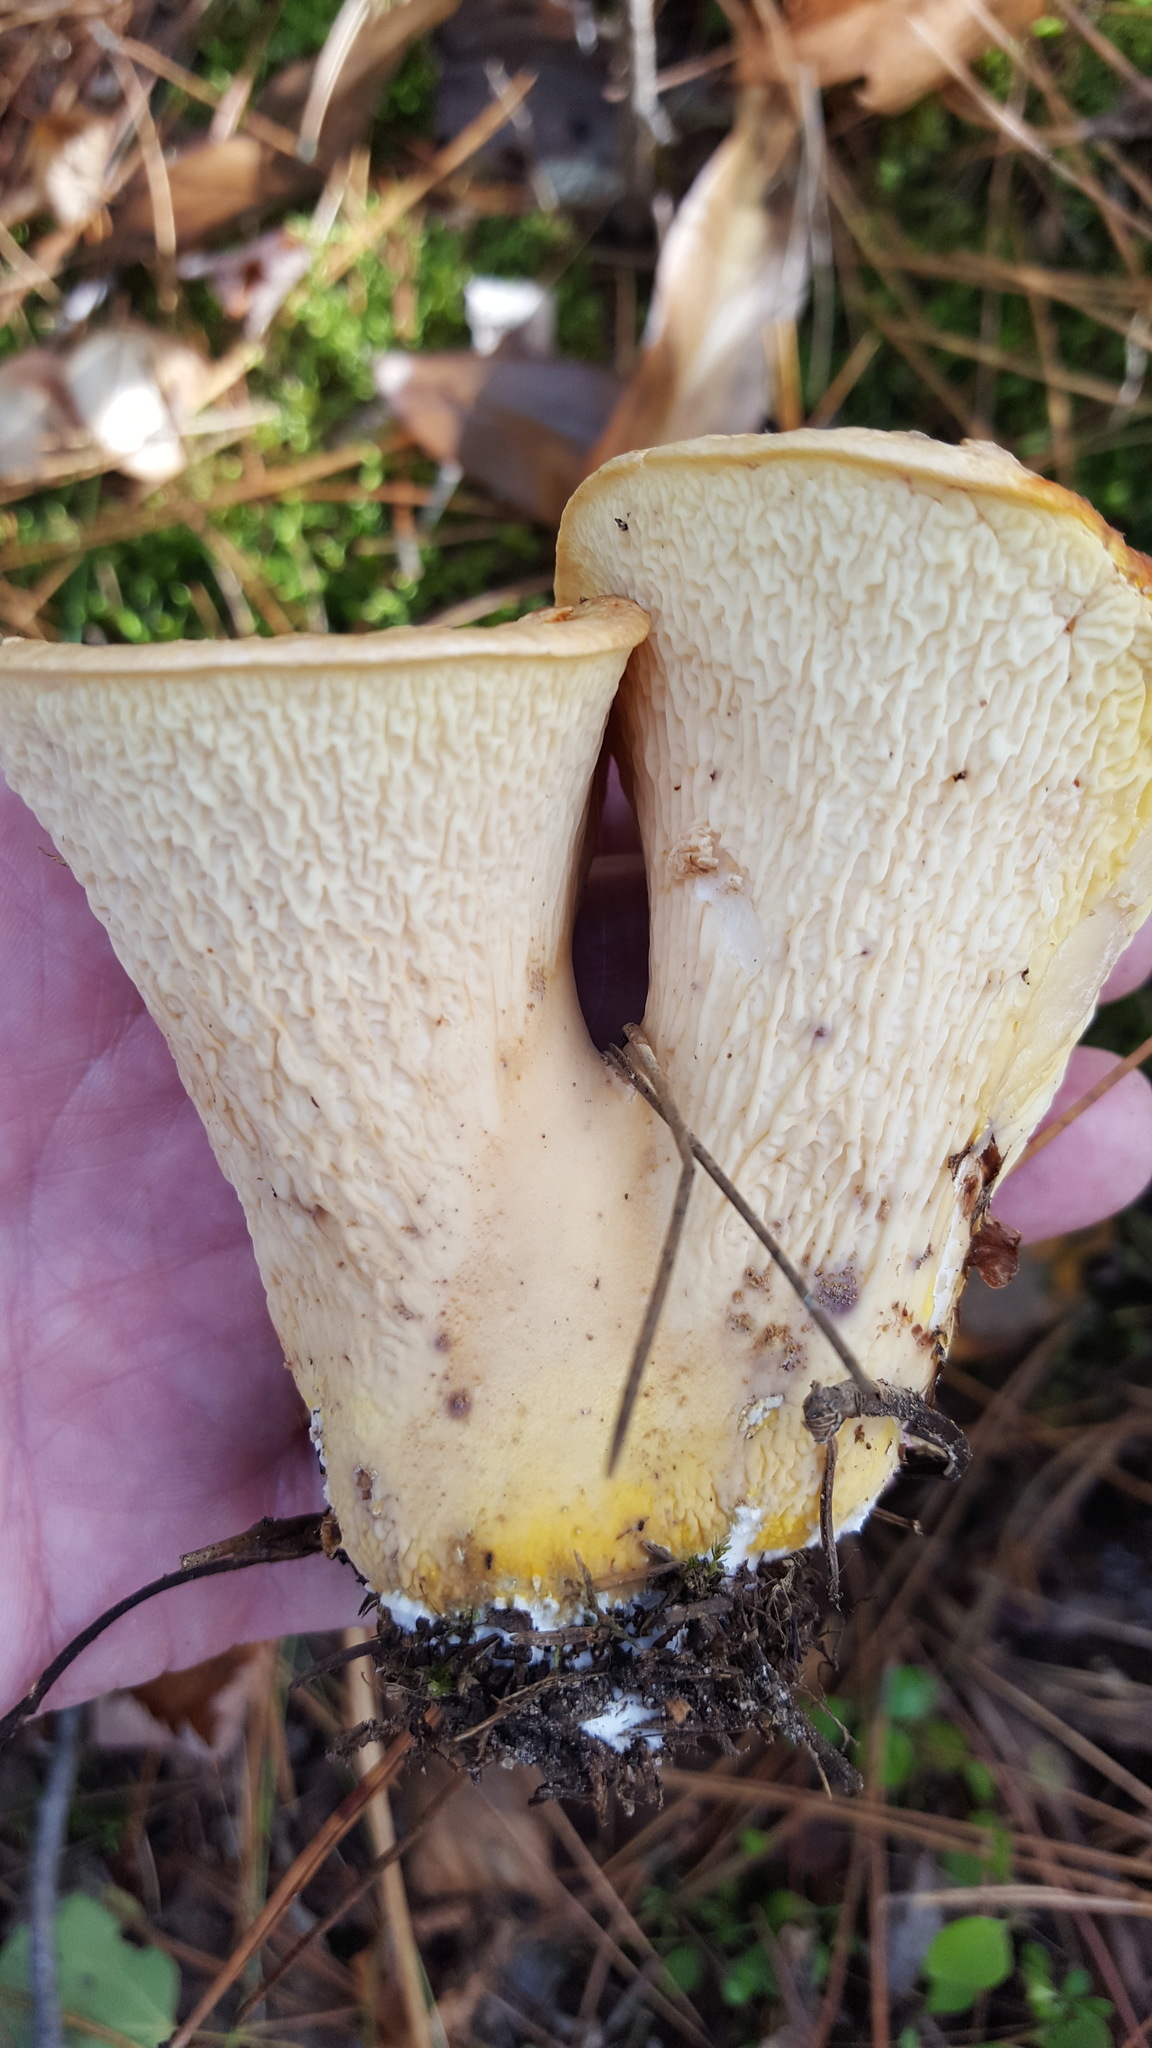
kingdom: Fungi
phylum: Basidiomycota
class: Agaricomycetes
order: Gomphales
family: Gomphaceae
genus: Turbinellus
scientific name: Turbinellus floccosus
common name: Scaly chanterelle
